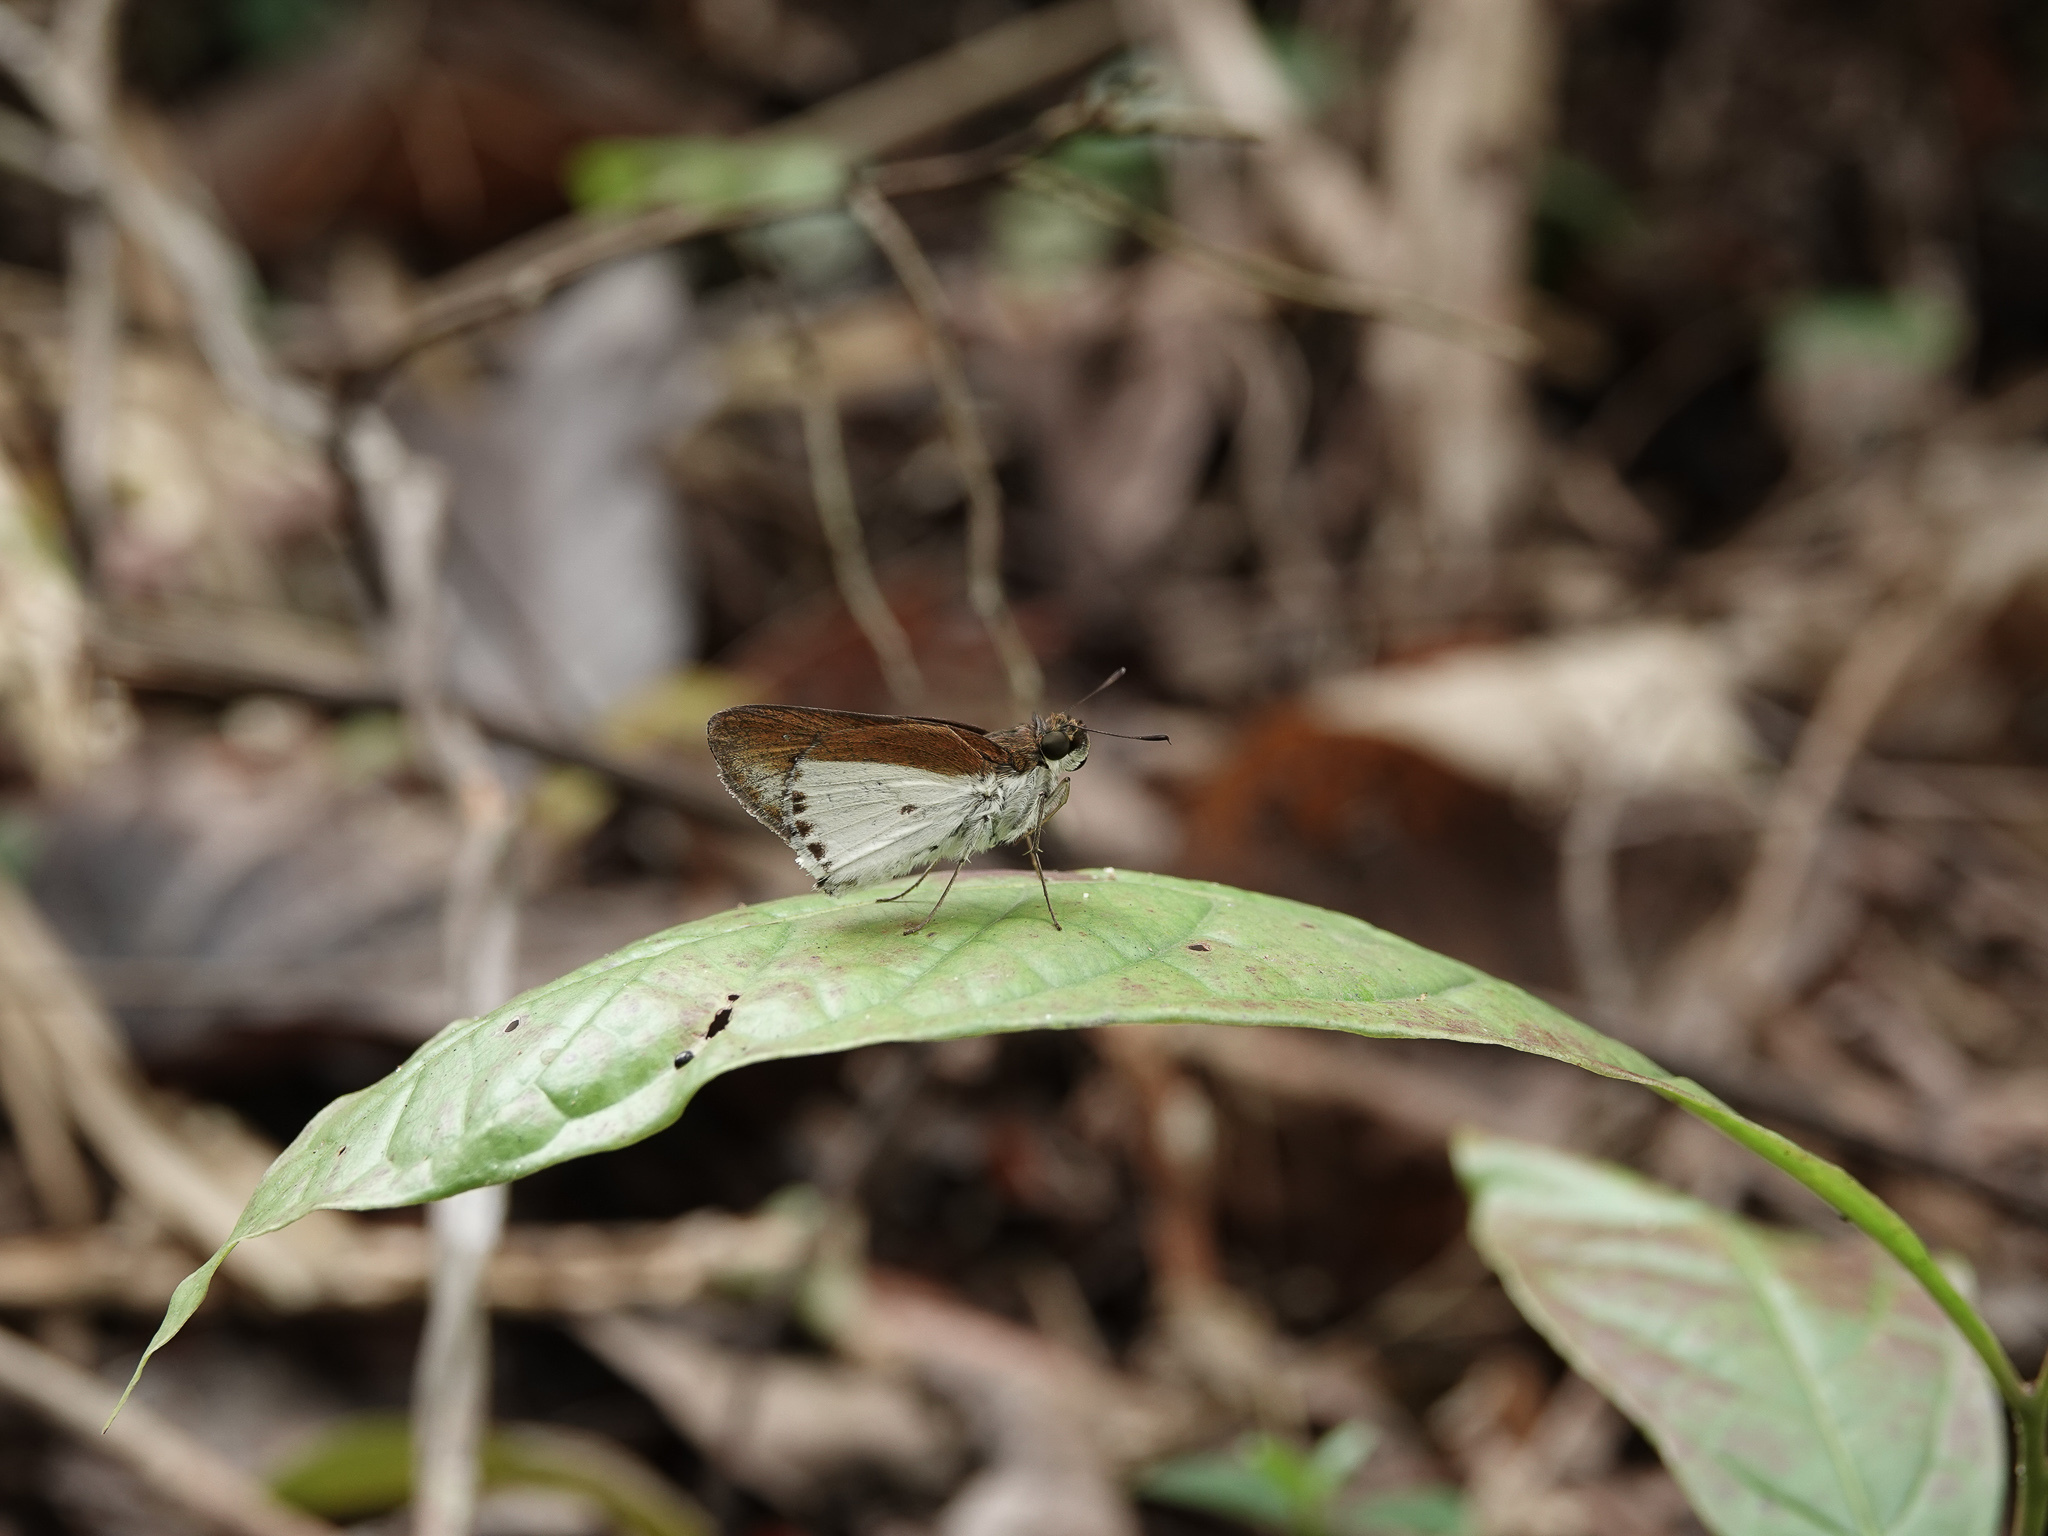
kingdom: Animalia
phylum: Arthropoda
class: Insecta
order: Lepidoptera
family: Hesperiidae
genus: Iton
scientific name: Iton semamora
